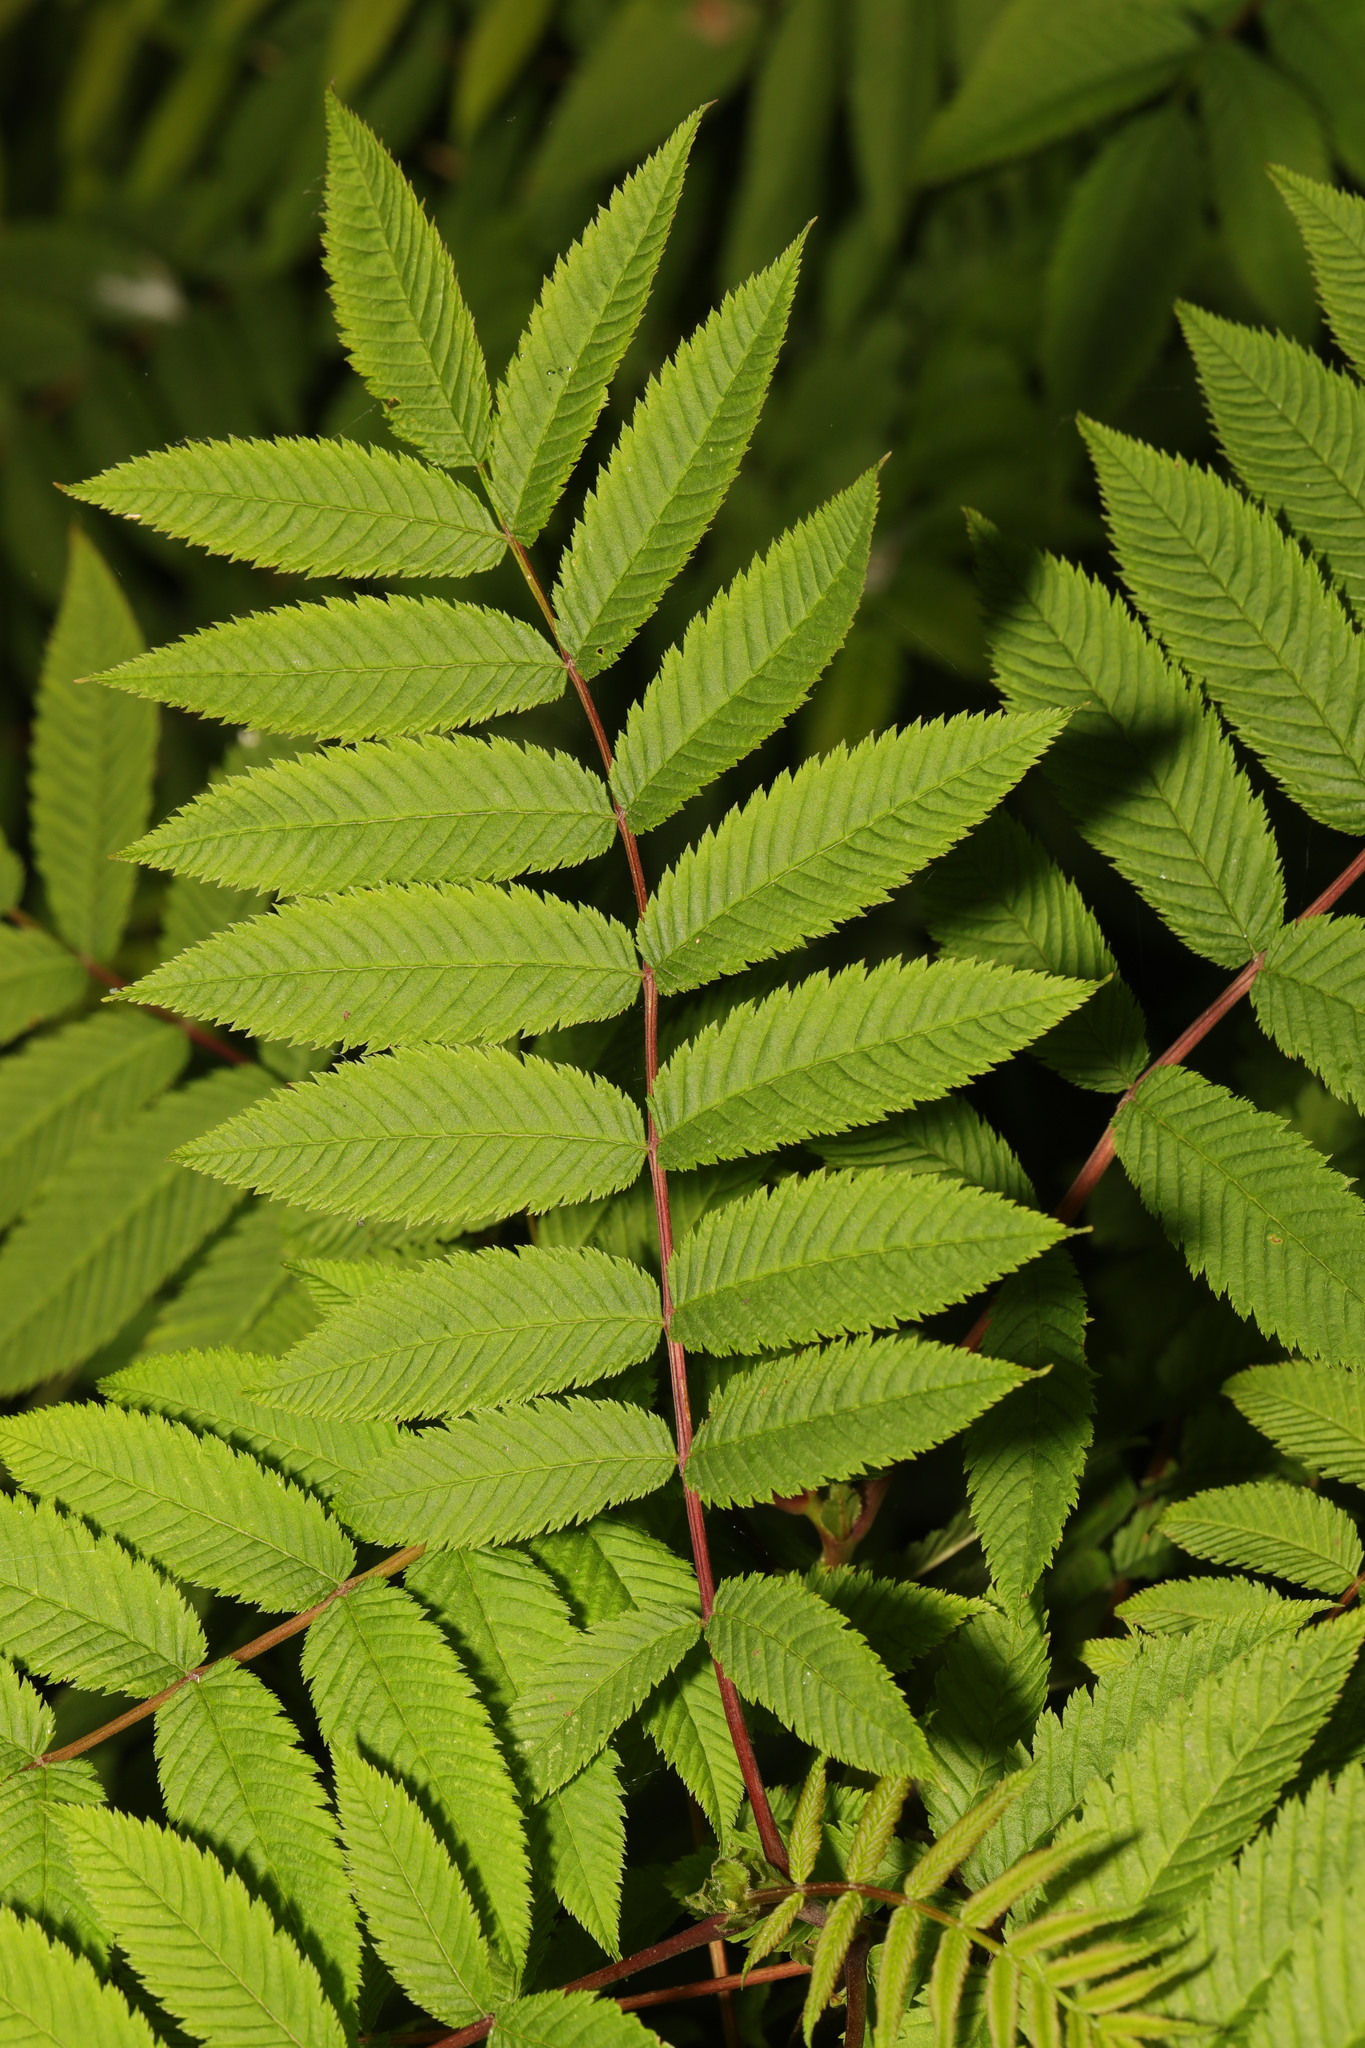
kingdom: Plantae
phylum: Tracheophyta
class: Magnoliopsida
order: Rosales
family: Rosaceae
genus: Sorbaria
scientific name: Sorbaria sorbifolia
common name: False spiraea
